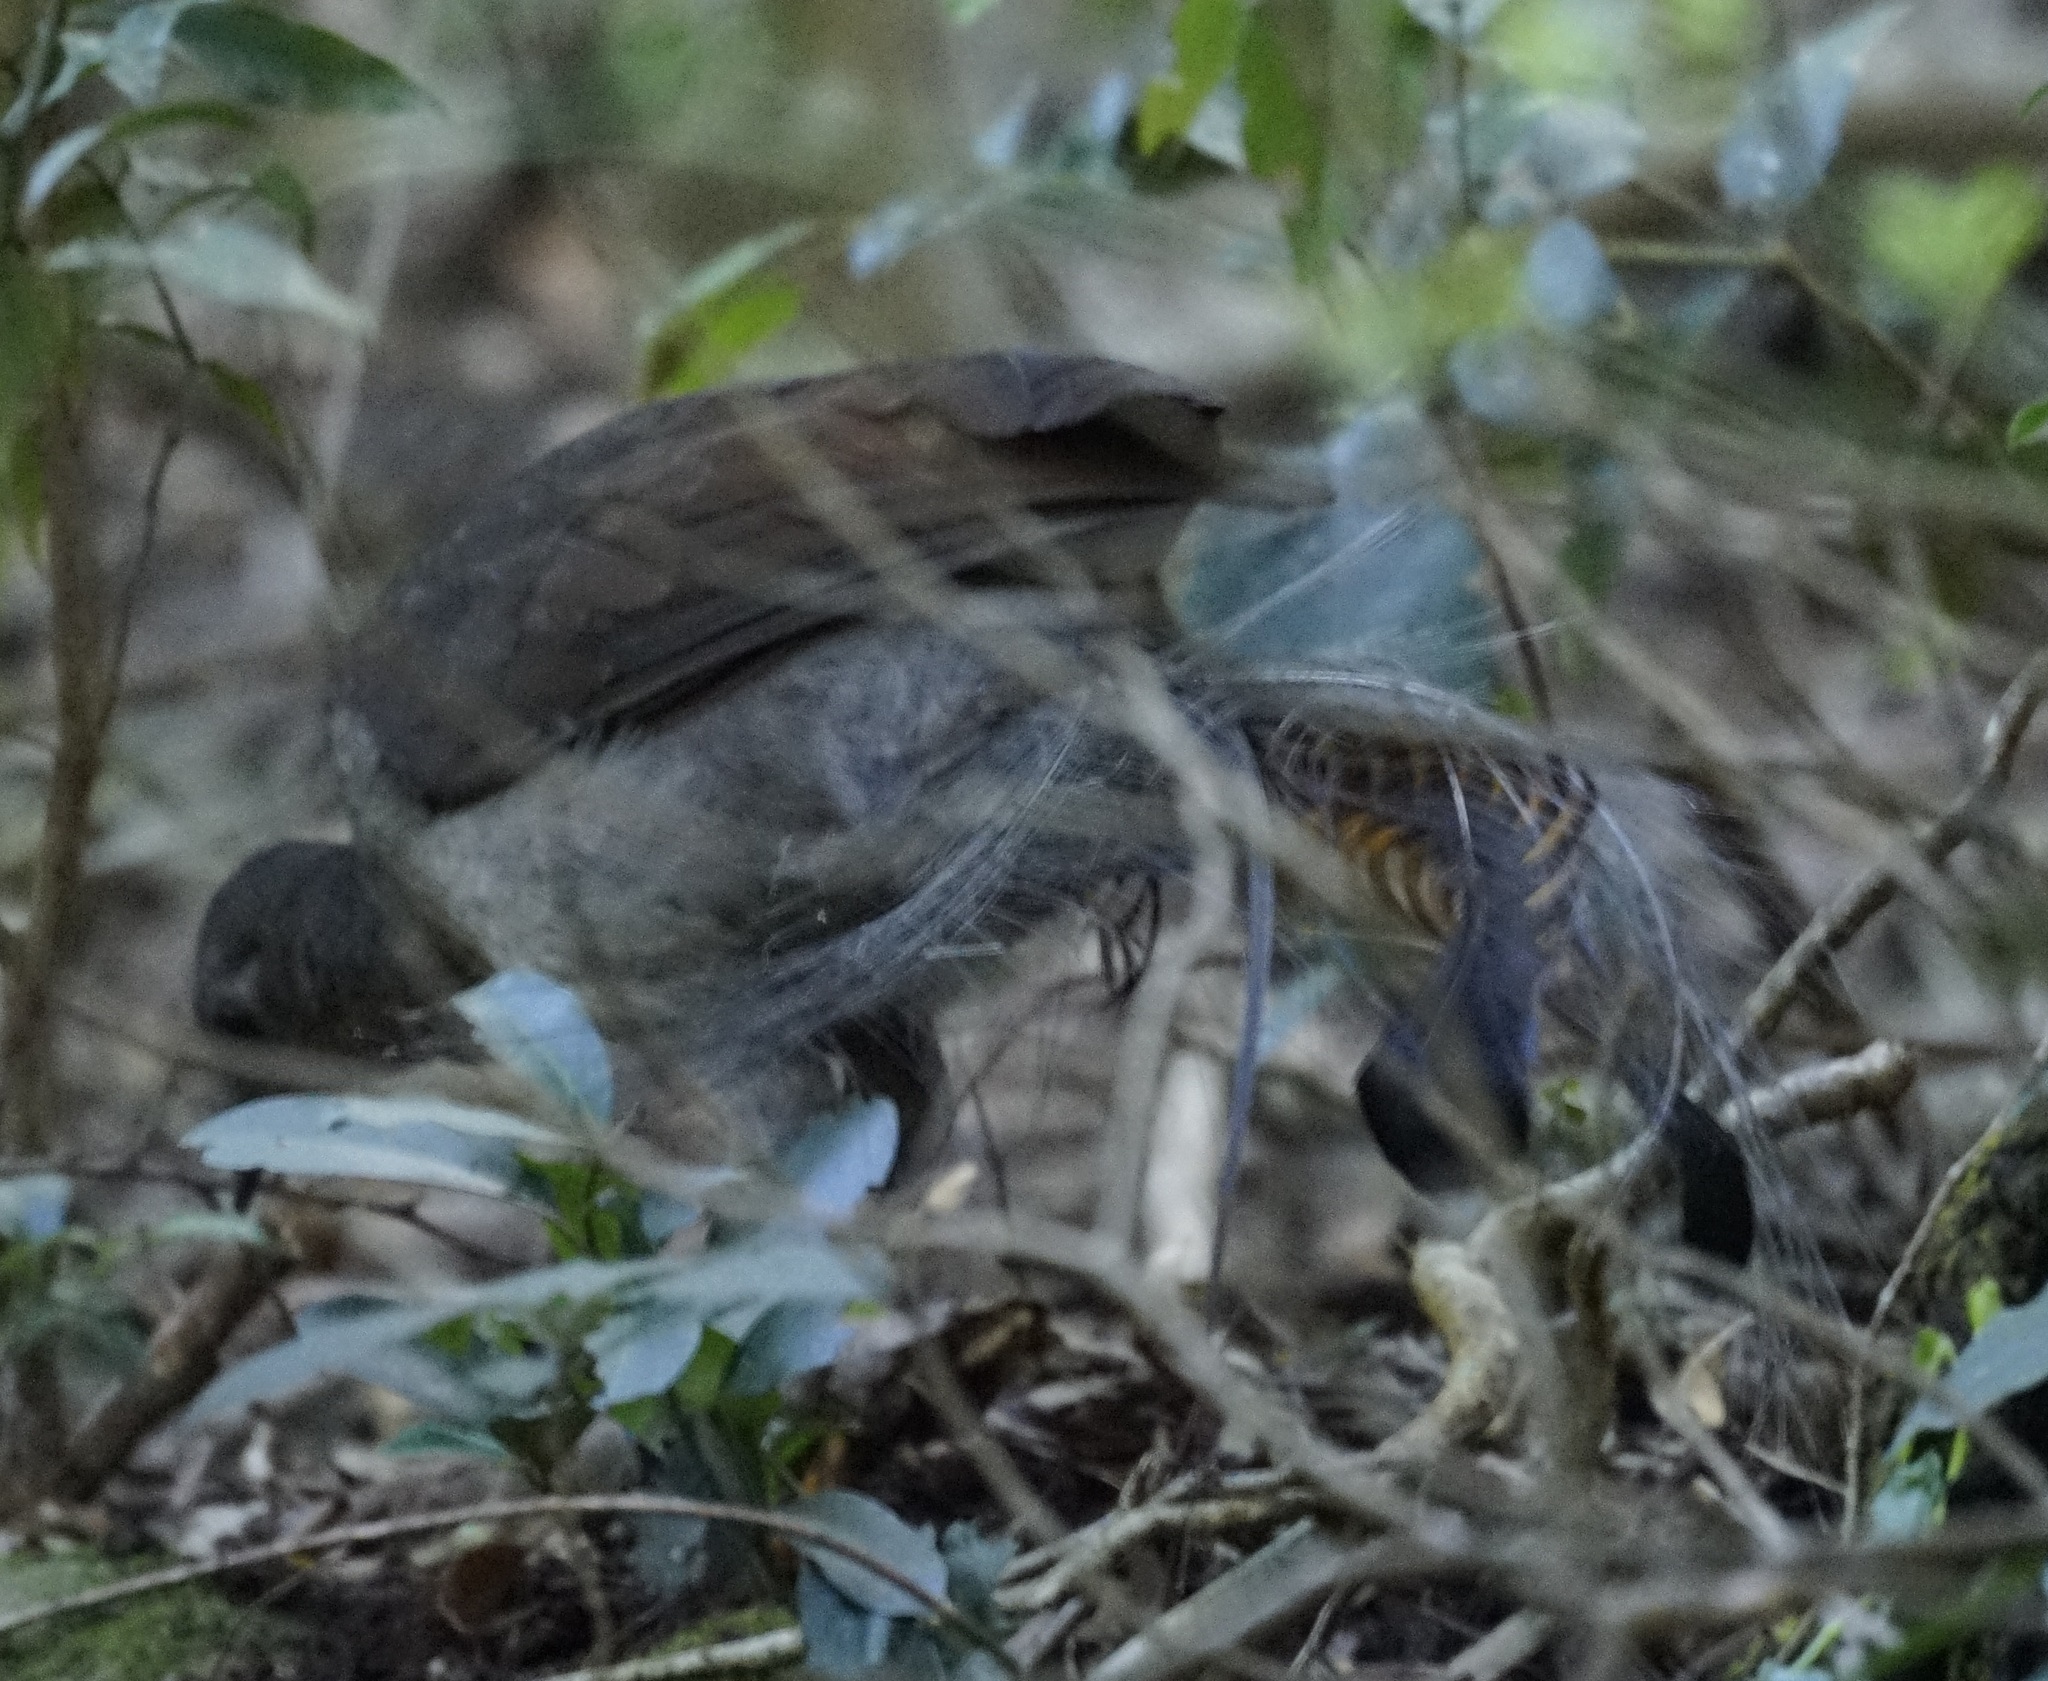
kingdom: Animalia
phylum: Chordata
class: Aves
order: Passeriformes
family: Menuridae
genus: Menura
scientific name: Menura novaehollandiae
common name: Superb lyrebird
